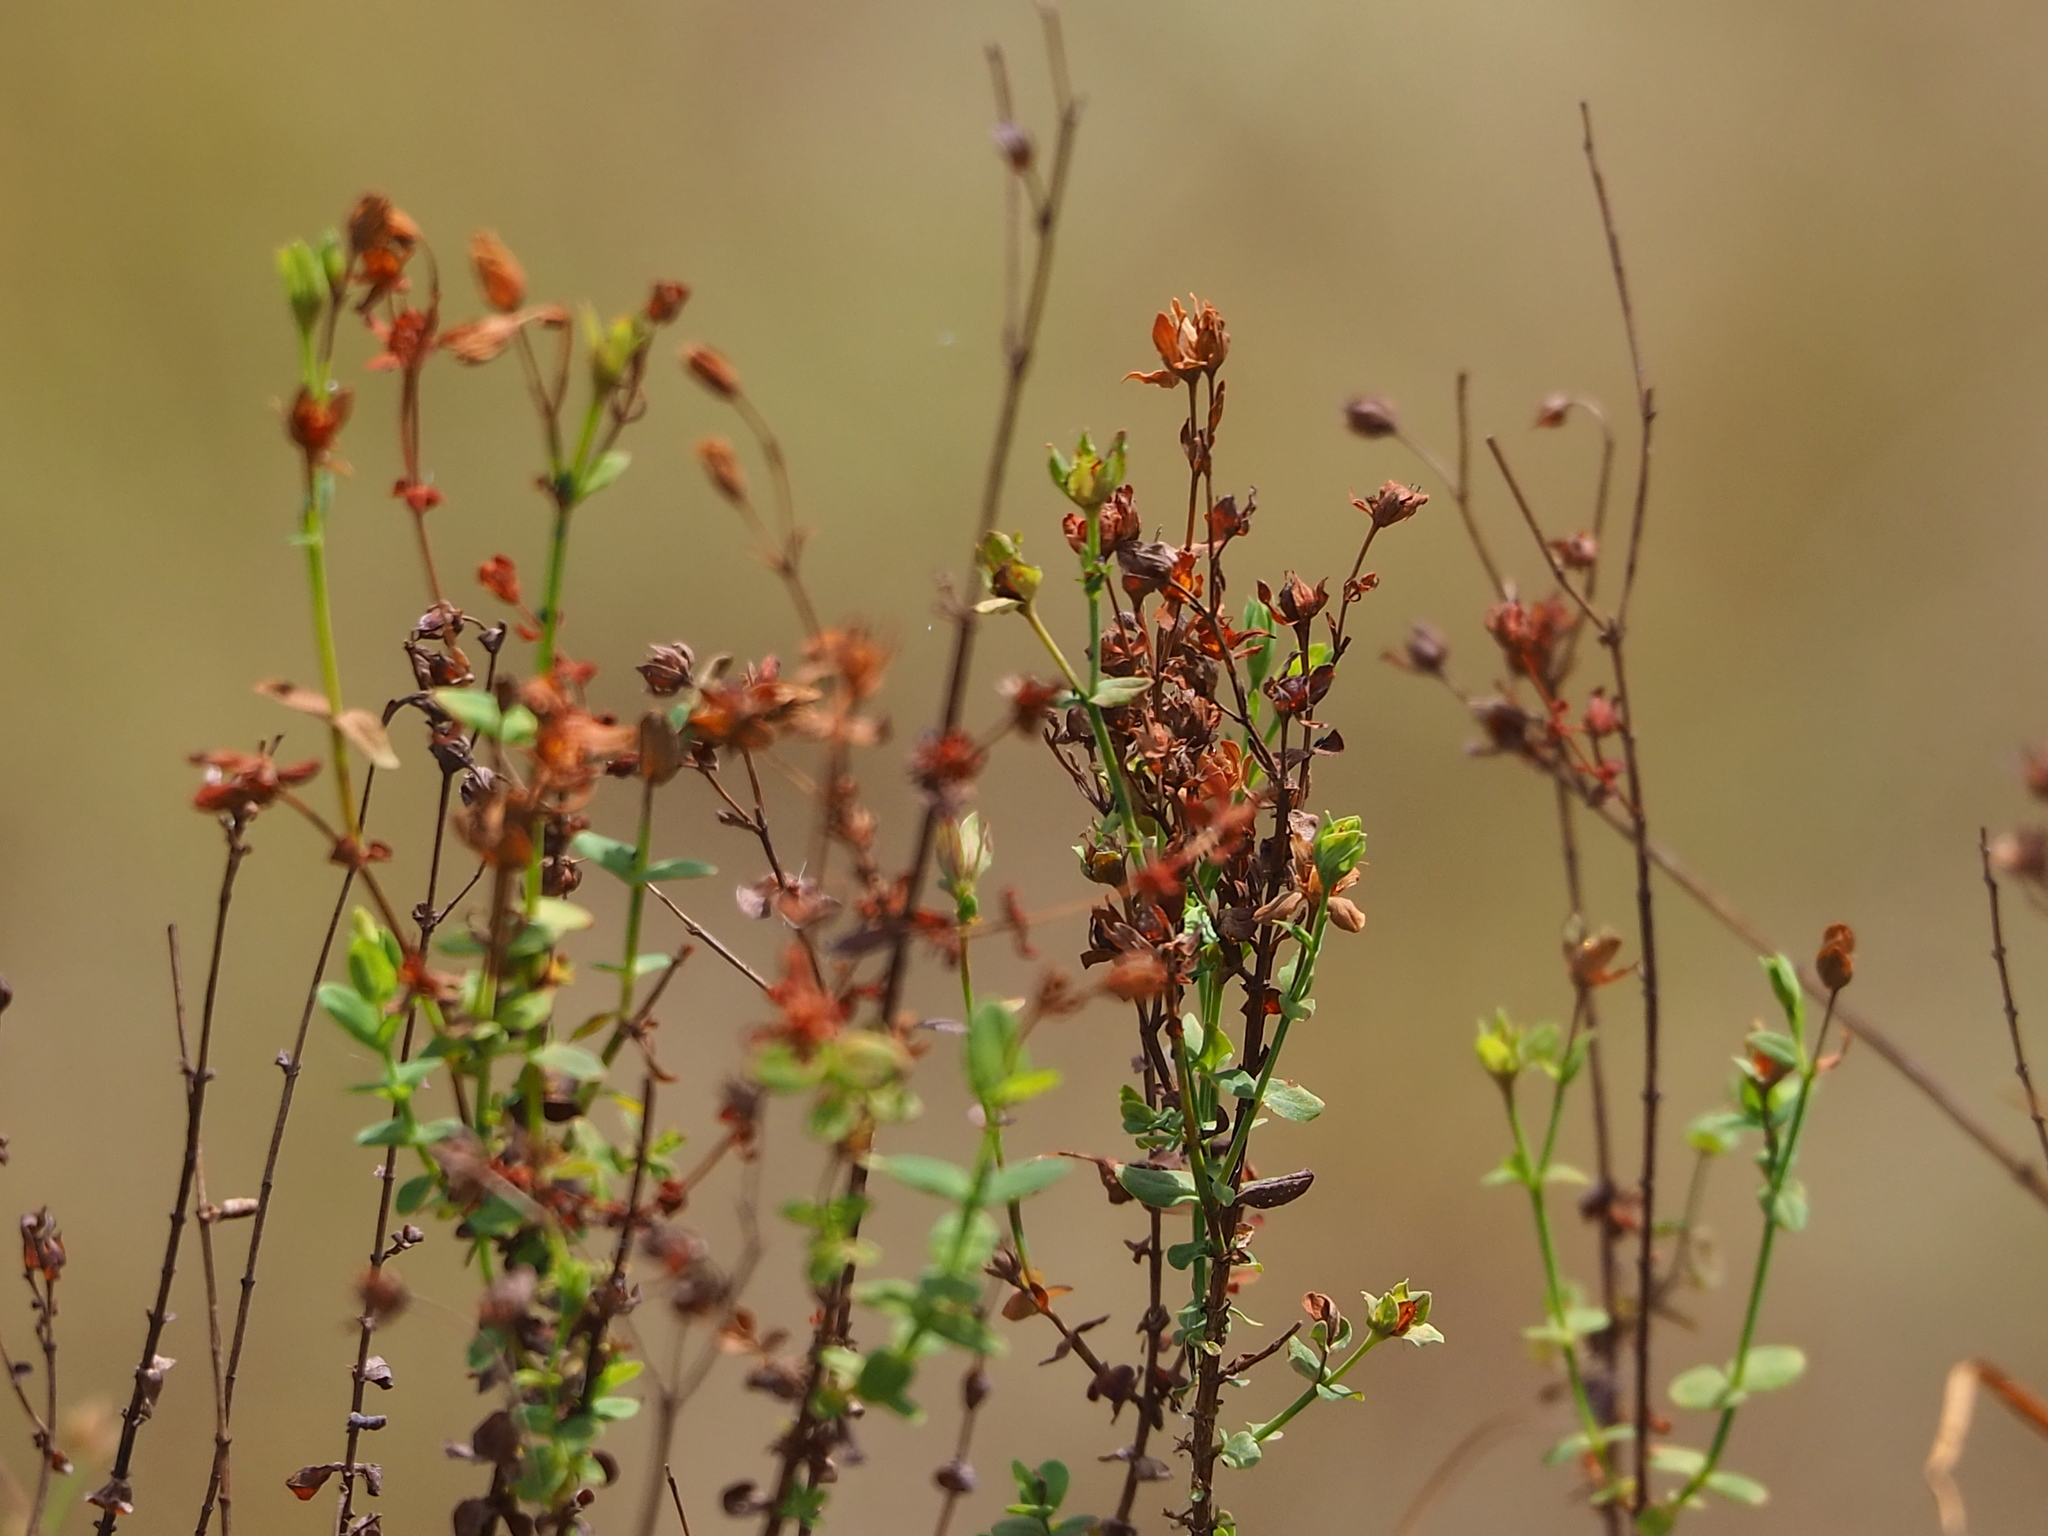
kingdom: Plantae
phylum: Tracheophyta
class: Magnoliopsida
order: Malpighiales
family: Hypericaceae
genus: Hypericum
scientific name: Hypericum japonicum
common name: Matted st. john's-wort
